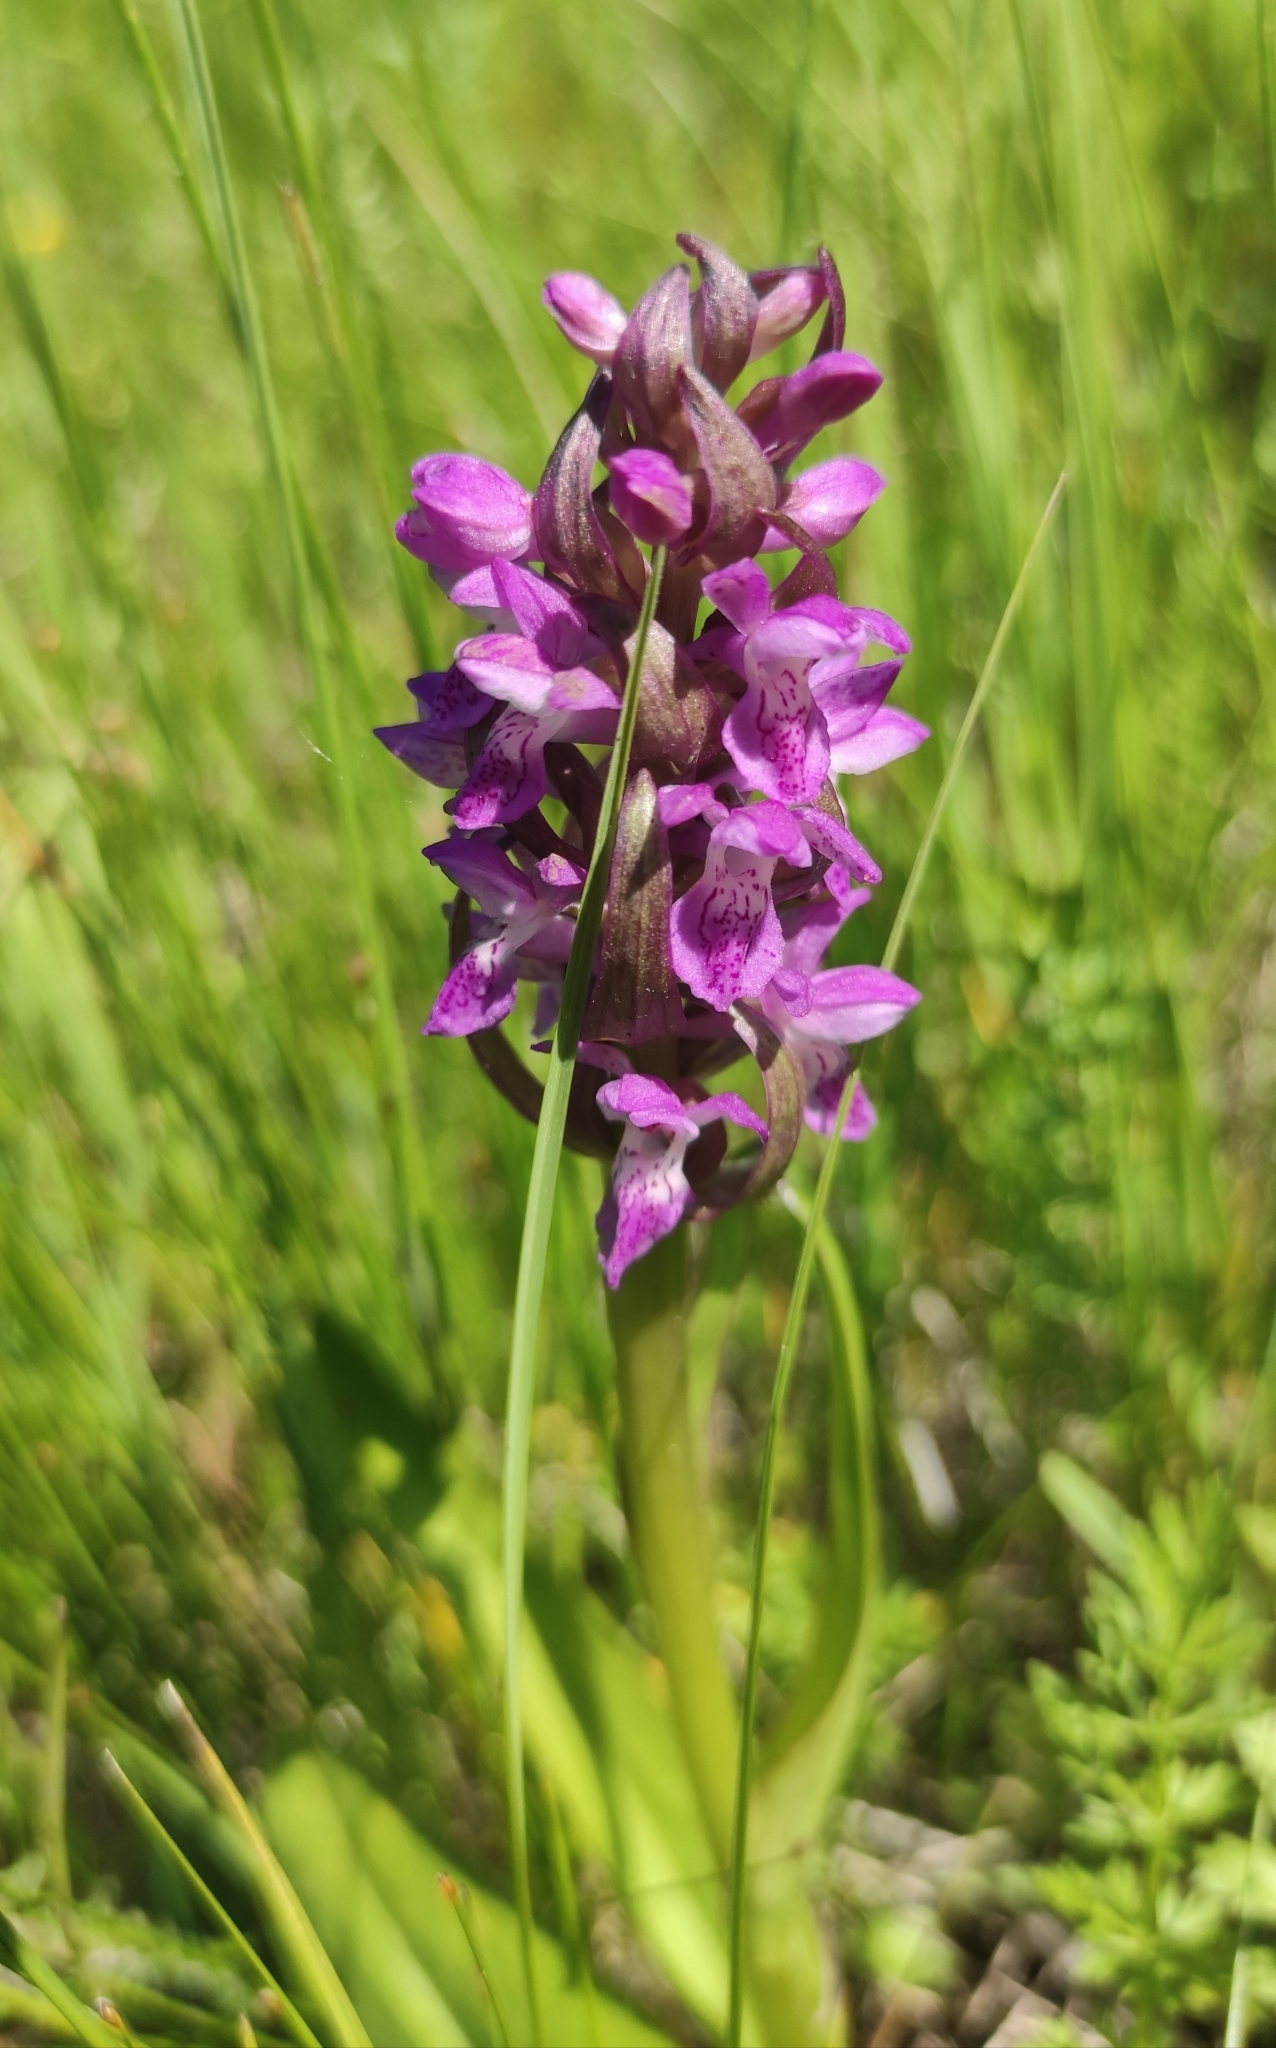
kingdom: Plantae
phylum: Tracheophyta
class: Liliopsida
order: Asparagales
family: Orchidaceae
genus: Dactylorhiza
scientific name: Dactylorhiza incarnata
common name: Early marsh-orchid
